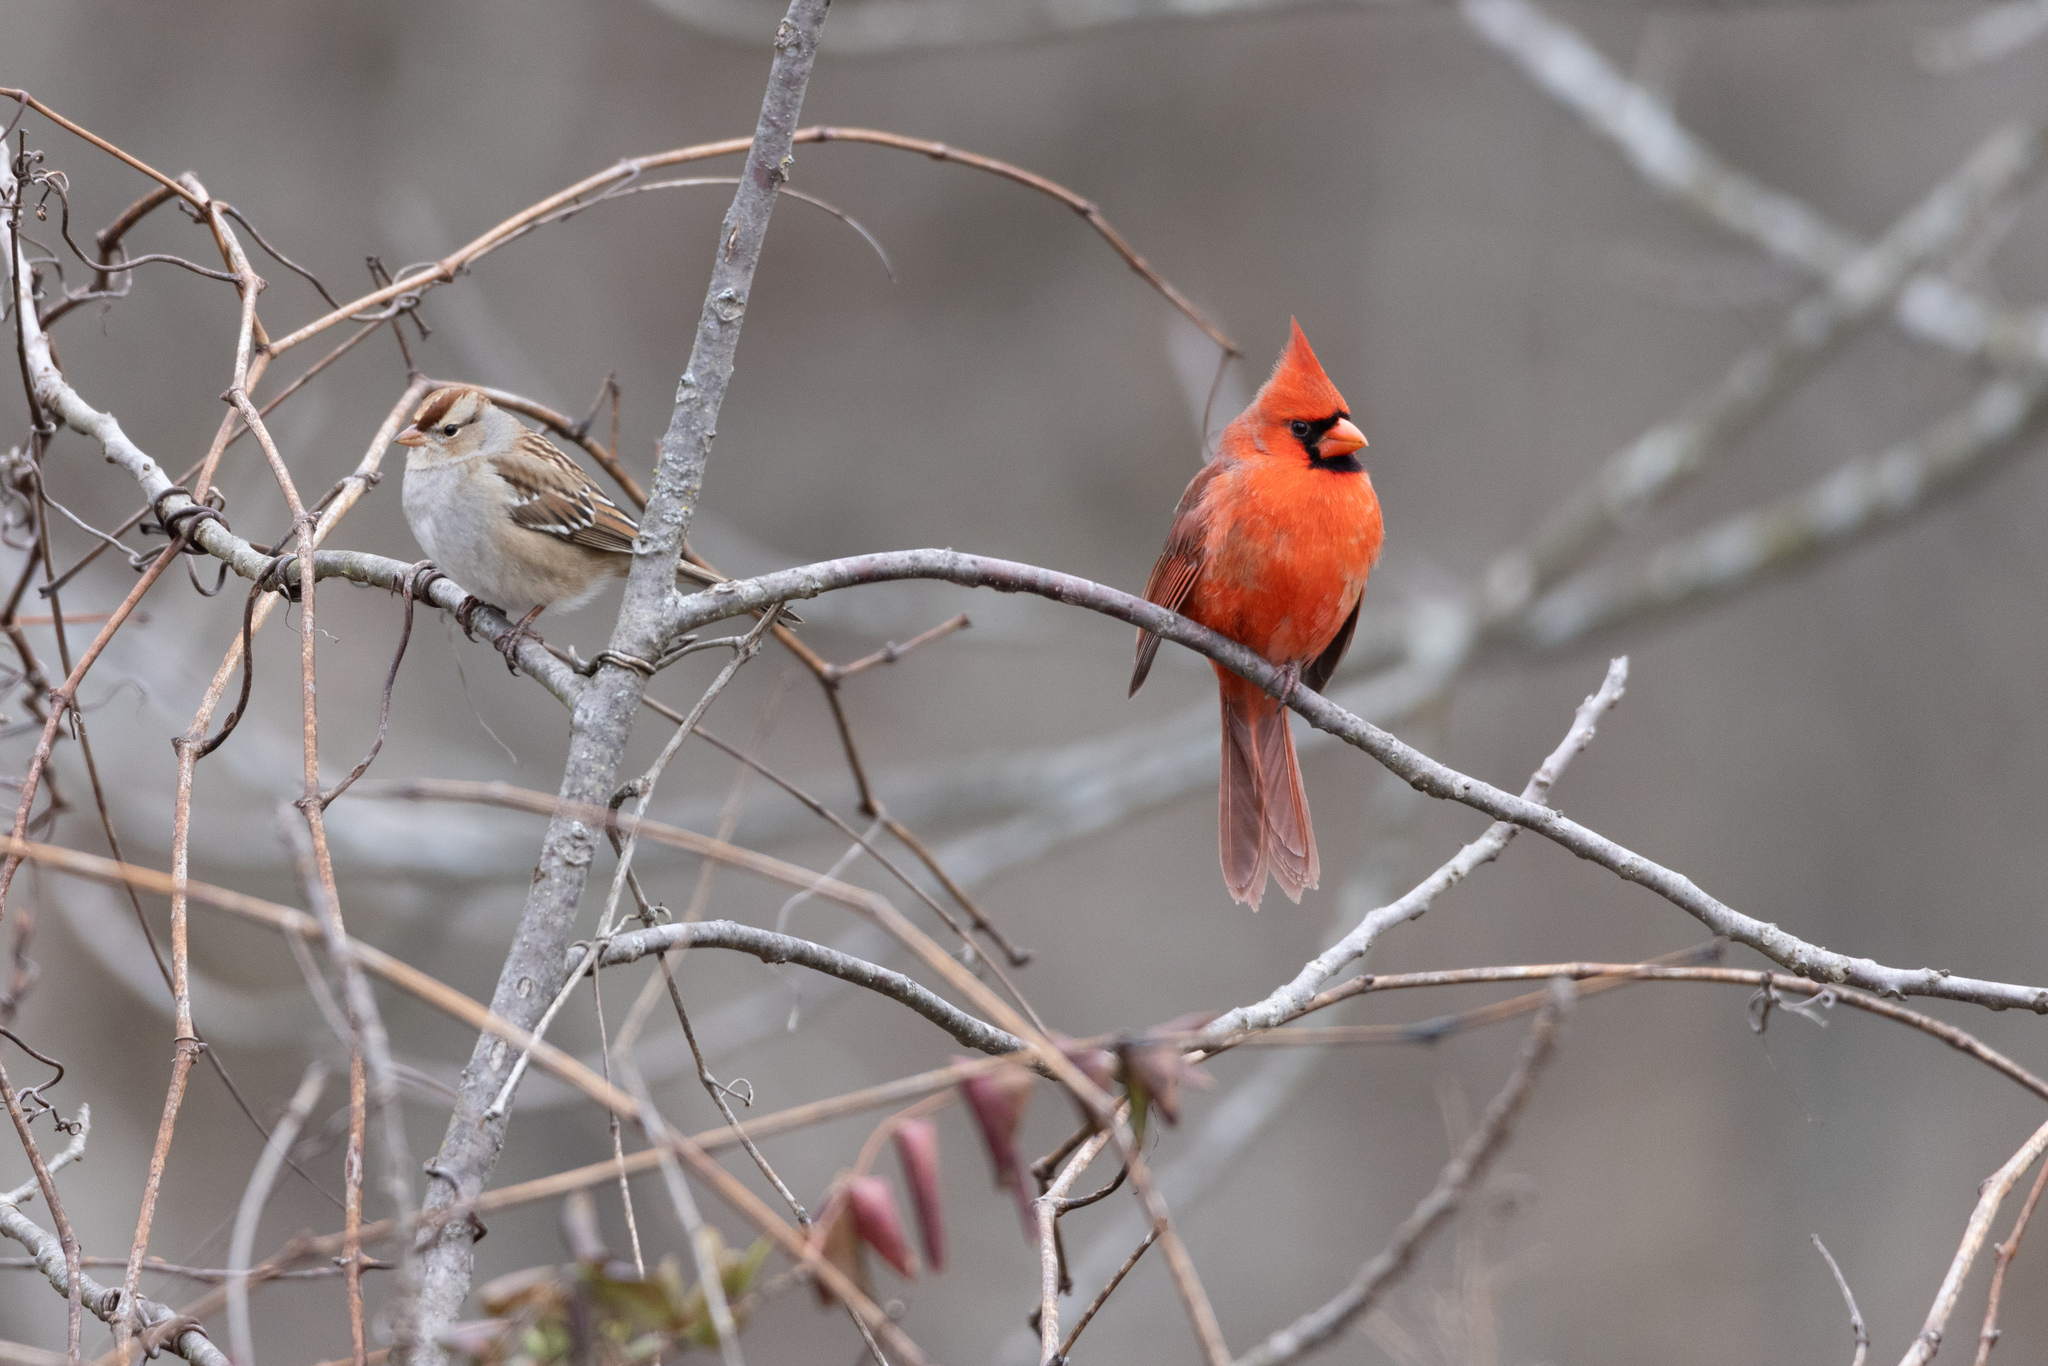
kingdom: Animalia
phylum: Chordata
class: Aves
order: Passeriformes
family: Cardinalidae
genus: Cardinalis
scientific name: Cardinalis cardinalis
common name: Northern cardinal
